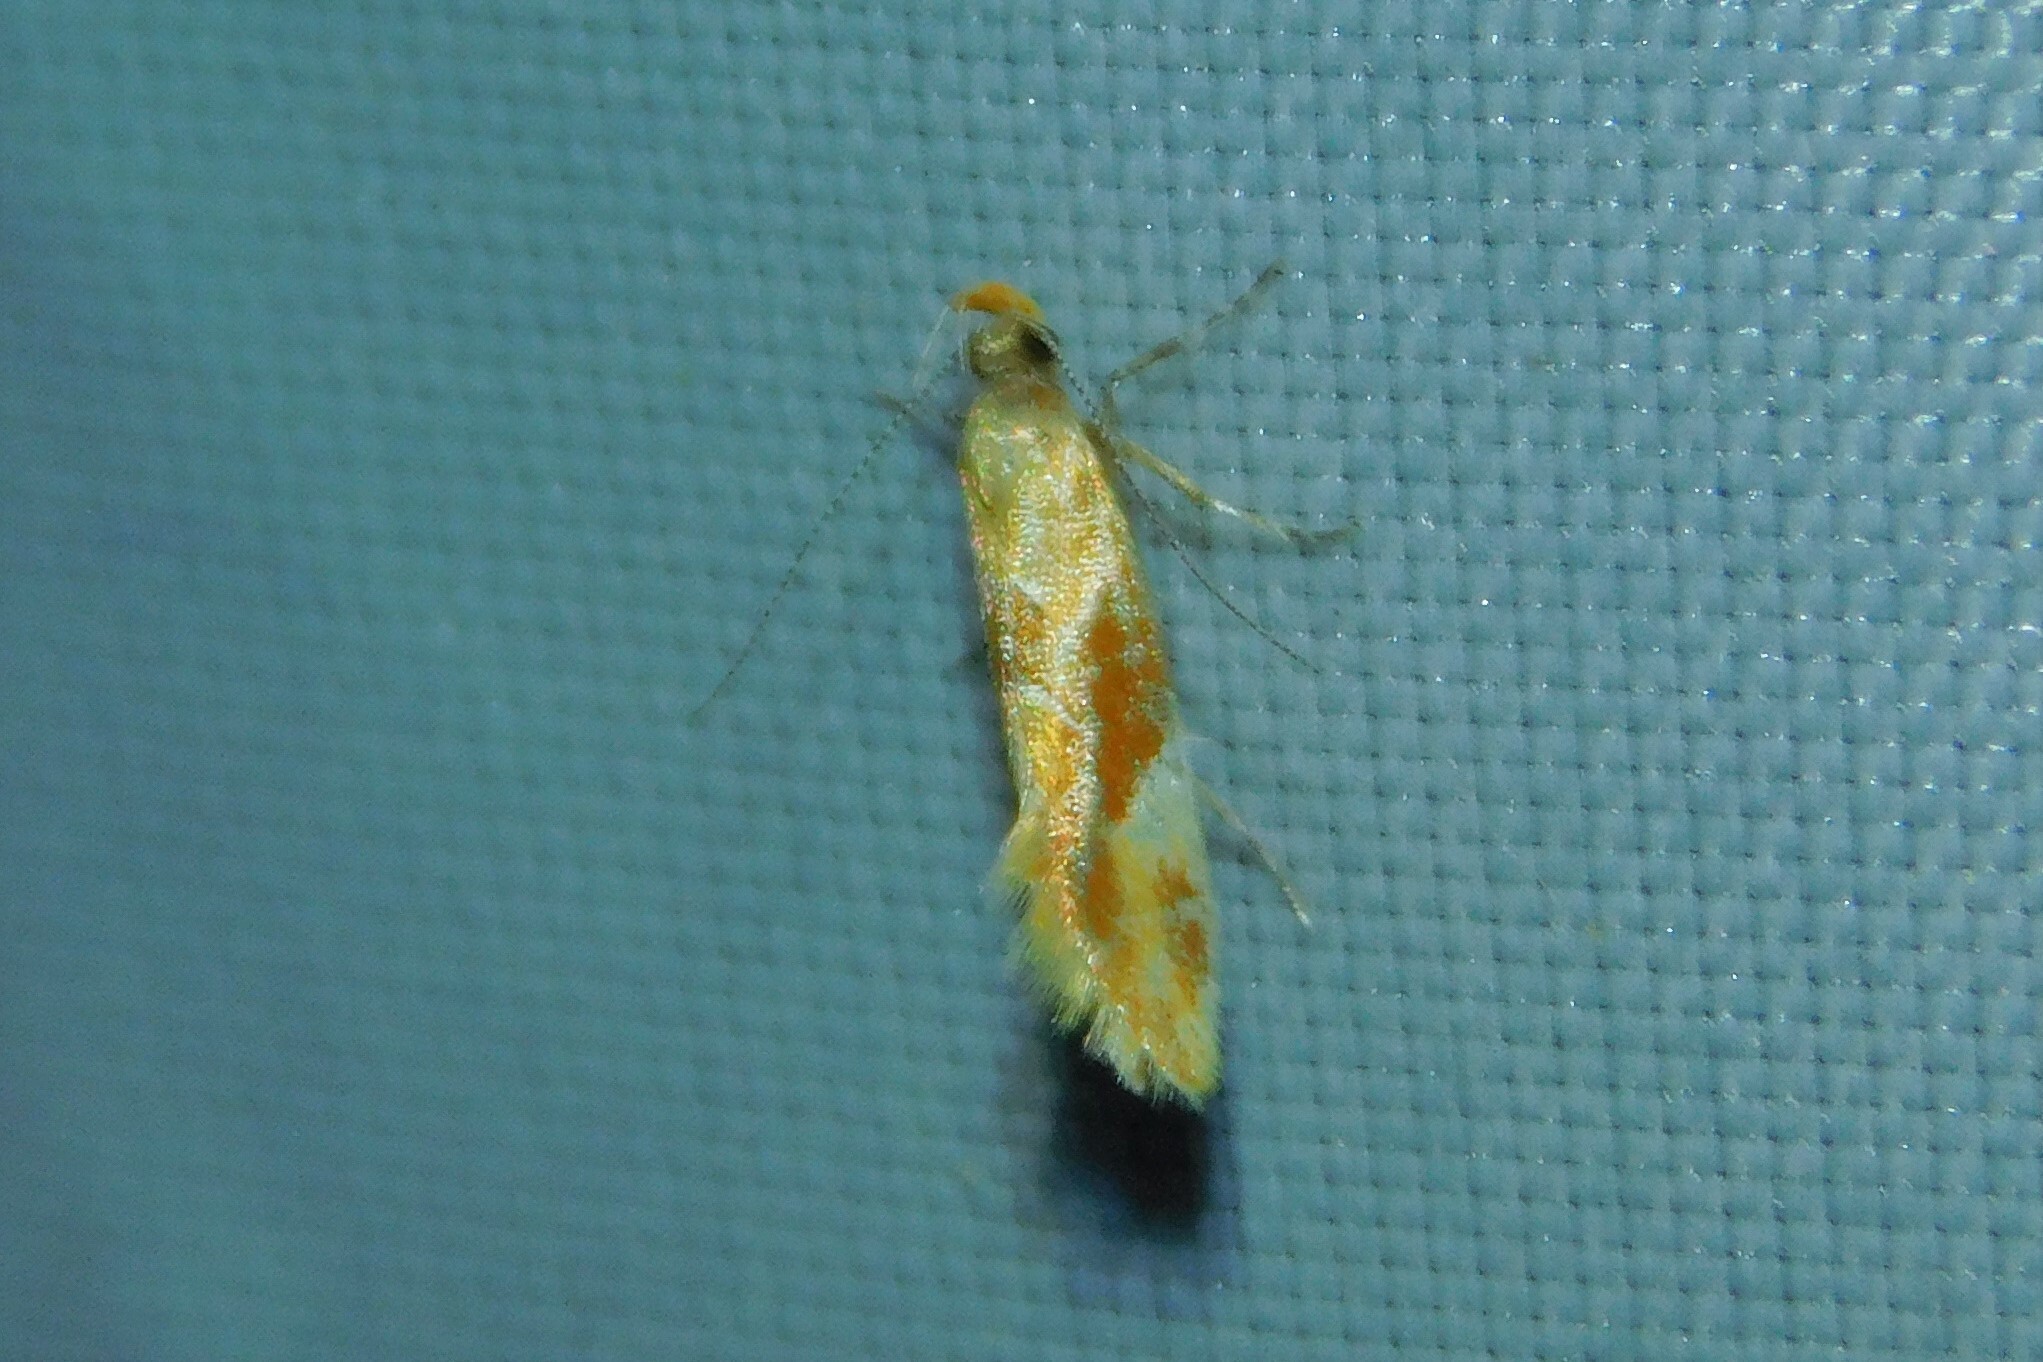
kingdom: Animalia
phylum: Arthropoda
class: Insecta
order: Lepidoptera
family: Oecophoridae
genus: Callima
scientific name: Callima formosella
